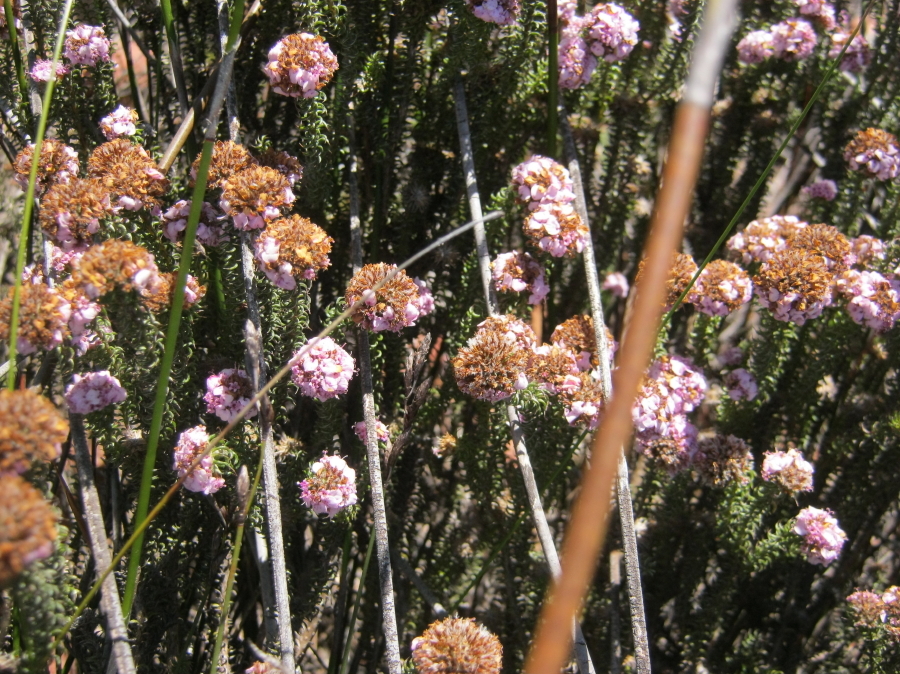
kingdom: Plantae
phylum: Tracheophyta
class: Magnoliopsida
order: Asterales
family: Asteraceae
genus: Disparago
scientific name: Disparago tortilis
